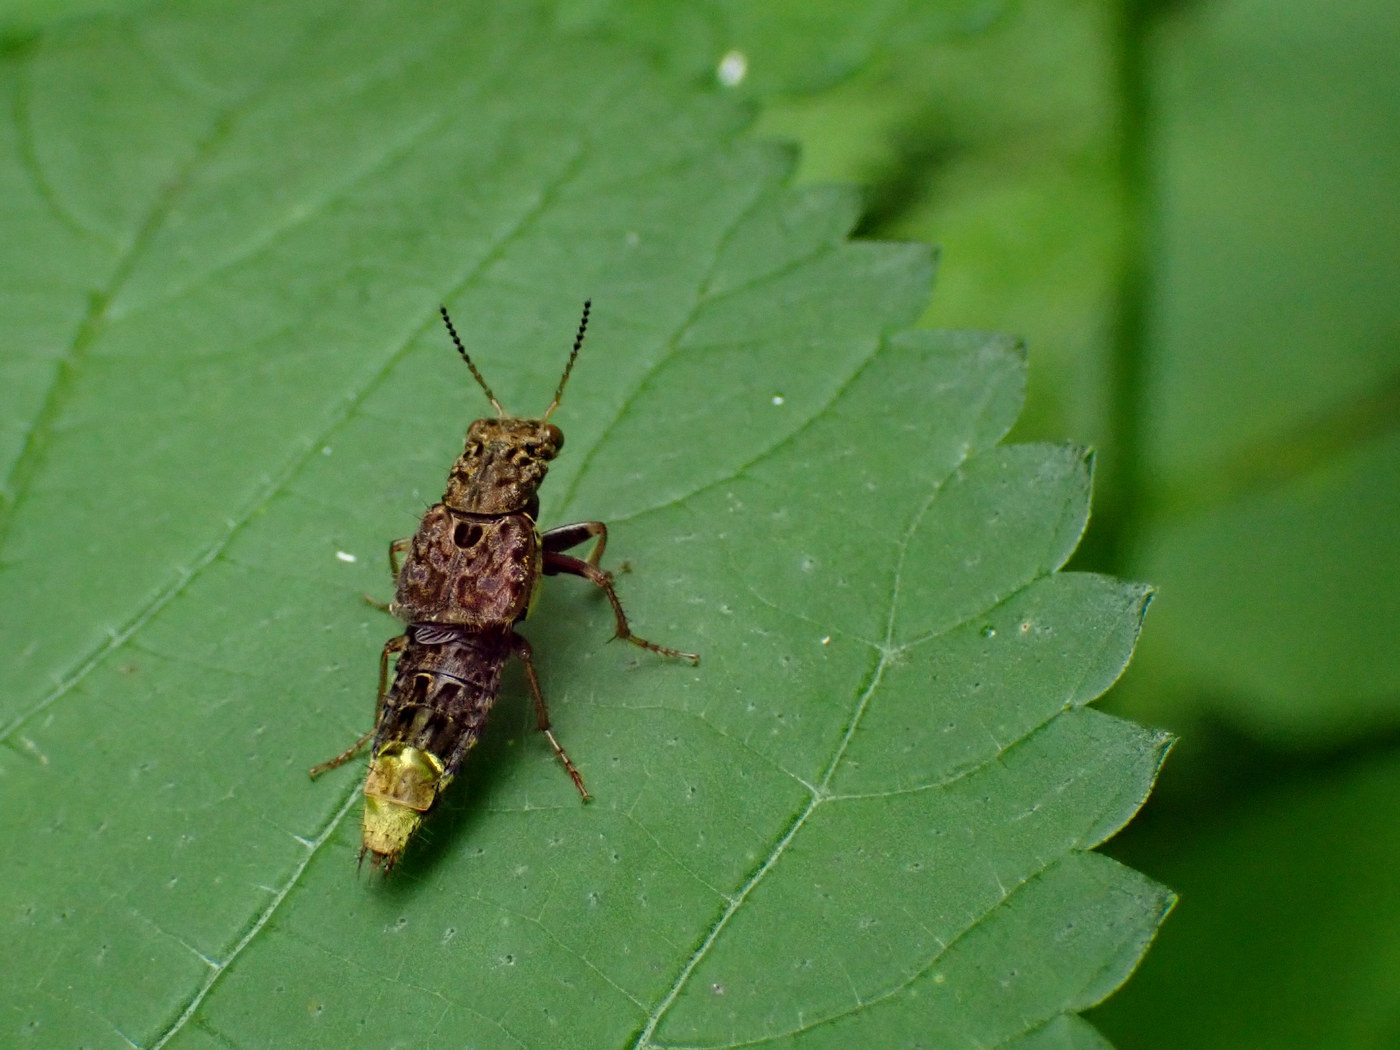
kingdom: Animalia
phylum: Arthropoda
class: Insecta
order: Coleoptera
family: Staphylinidae
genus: Ontholestes
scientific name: Ontholestes cingulatus
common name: Gold-and-brown rove beetle
